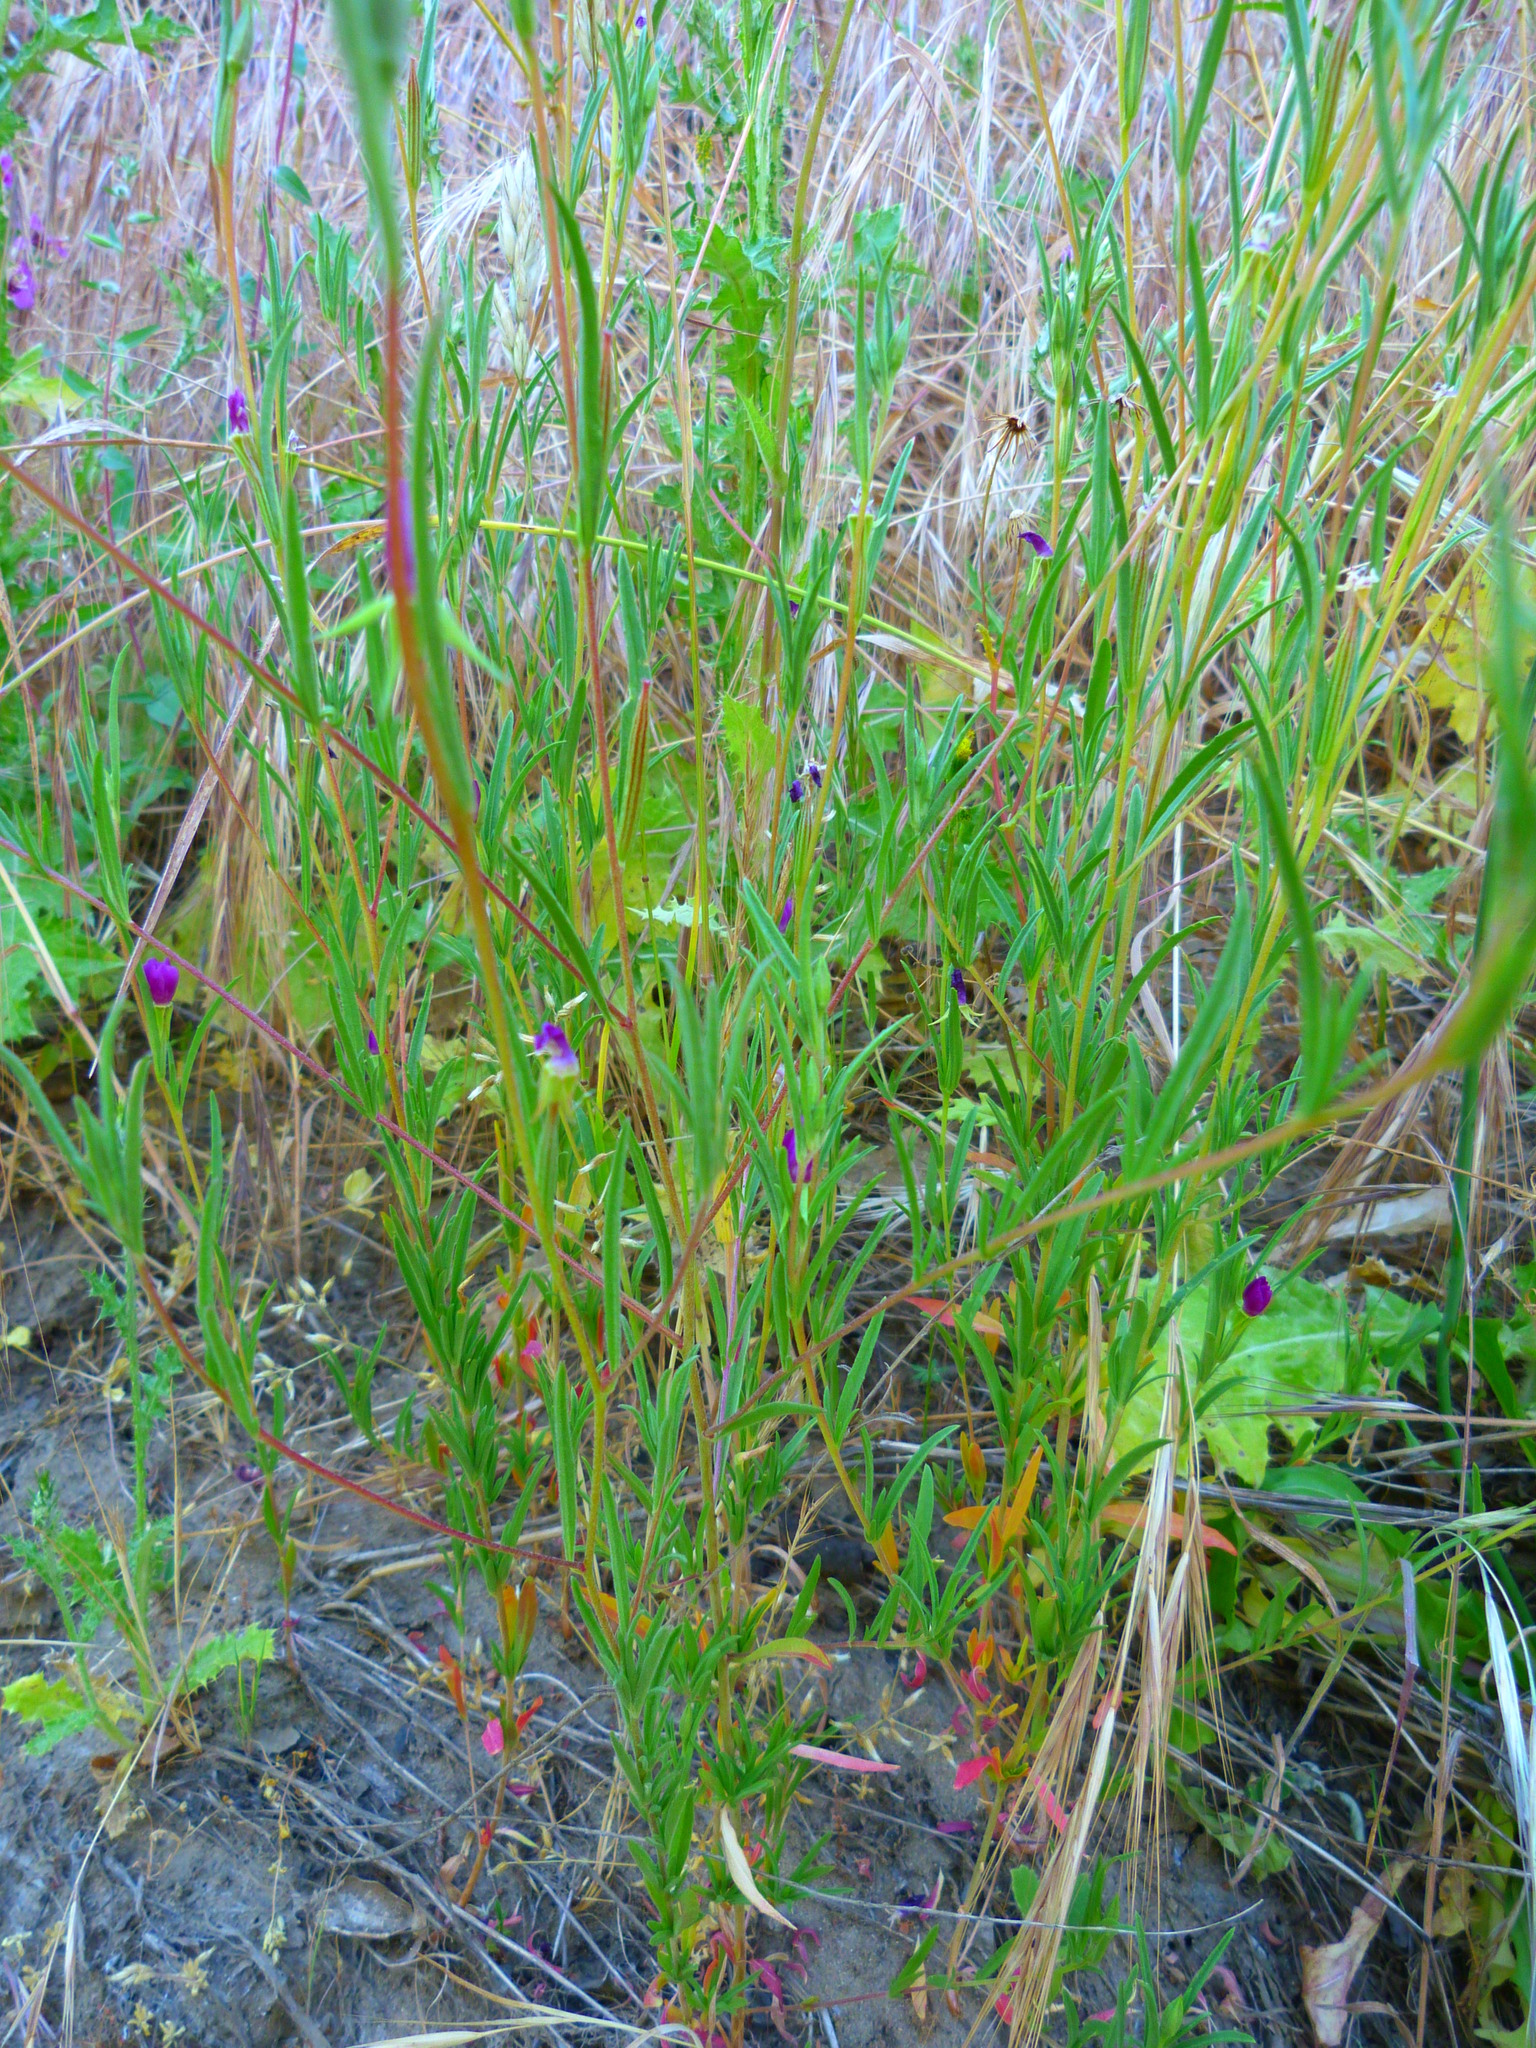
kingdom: Plantae
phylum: Tracheophyta
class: Magnoliopsida
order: Myrtales
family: Onagraceae
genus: Clarkia
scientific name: Clarkia purpurea
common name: Purple clarkia
